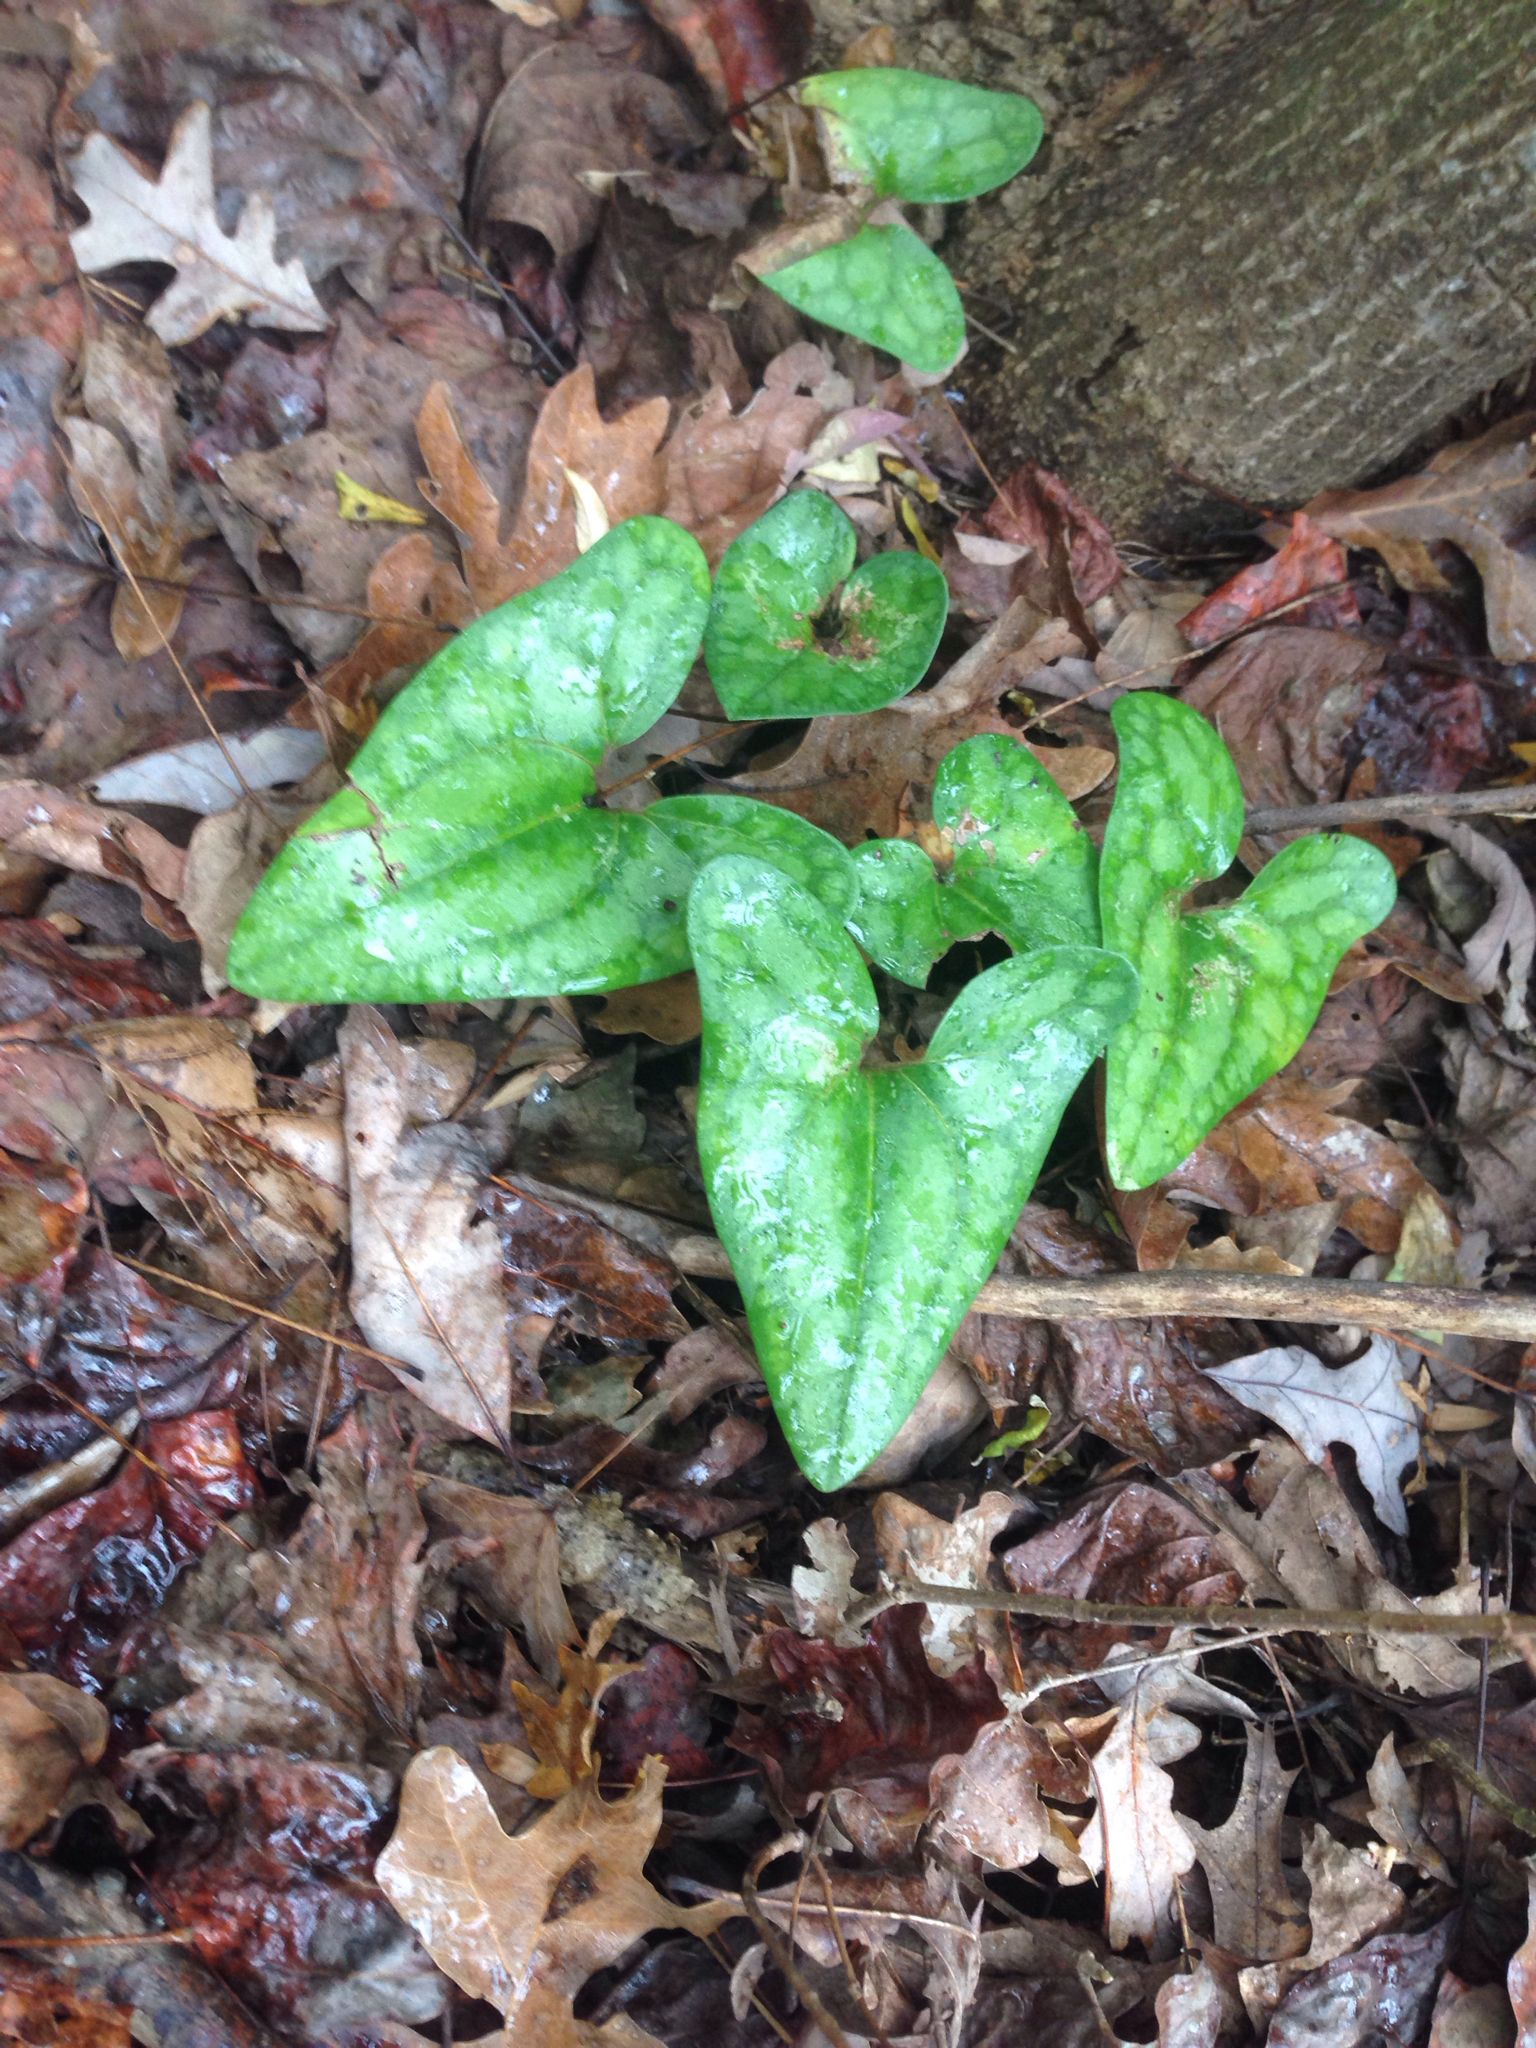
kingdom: Plantae
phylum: Tracheophyta
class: Magnoliopsida
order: Piperales
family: Aristolochiaceae
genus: Hexastylis
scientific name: Hexastylis arifolia
